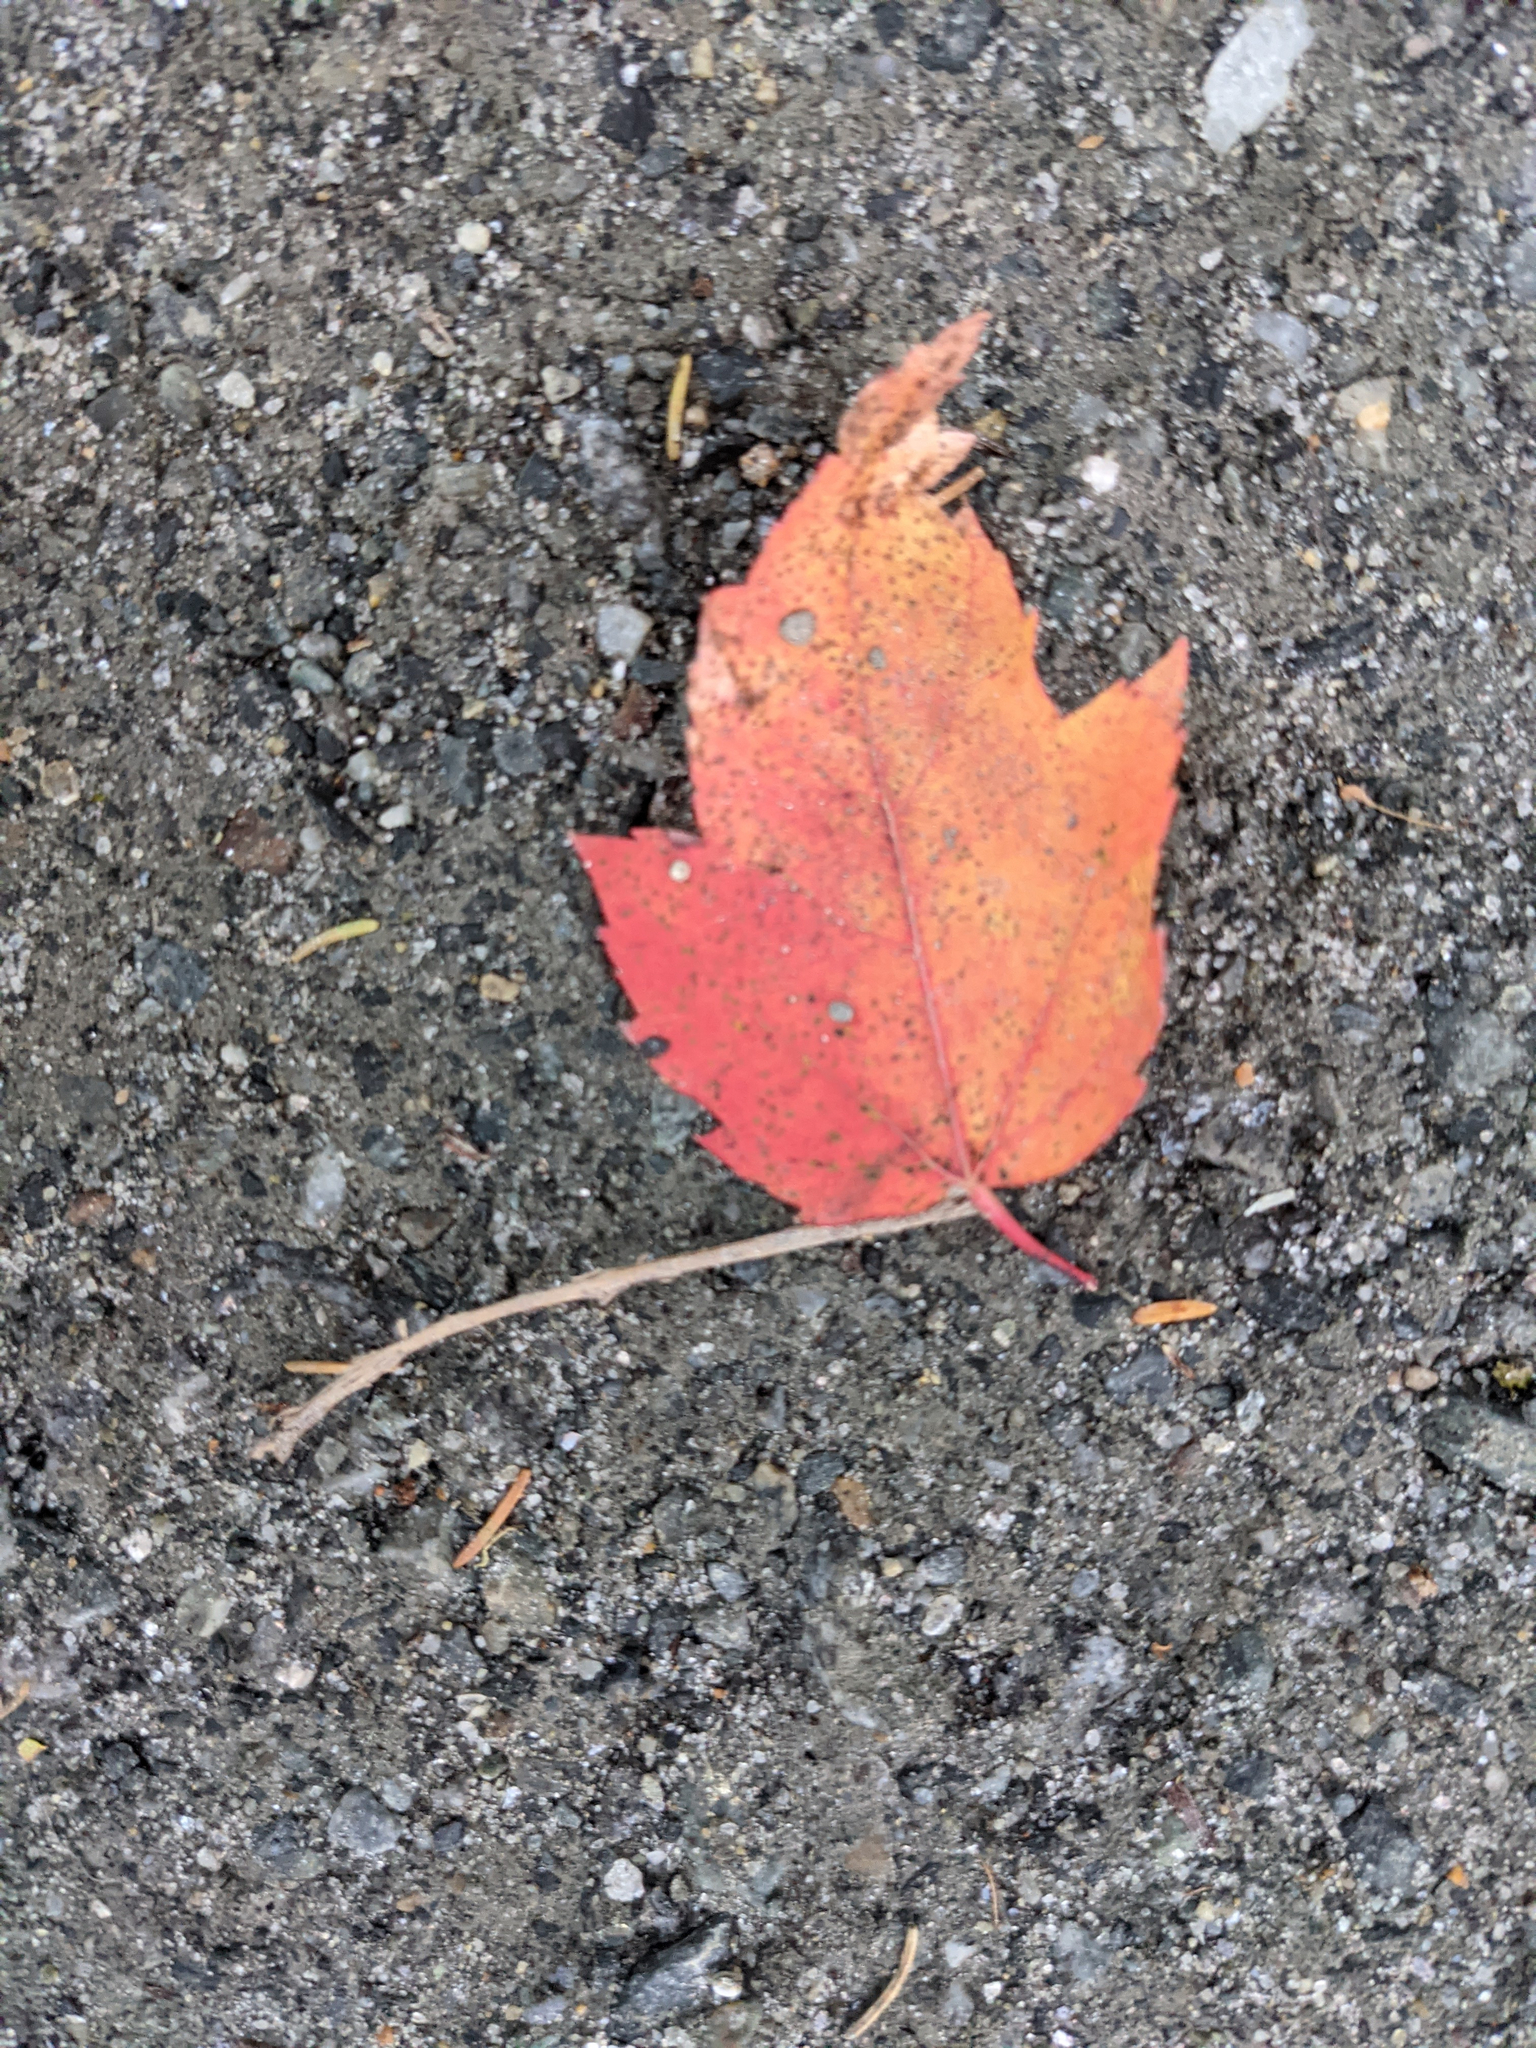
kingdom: Plantae
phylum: Tracheophyta
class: Magnoliopsida
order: Sapindales
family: Sapindaceae
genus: Acer
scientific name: Acer rubrum
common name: Red maple
